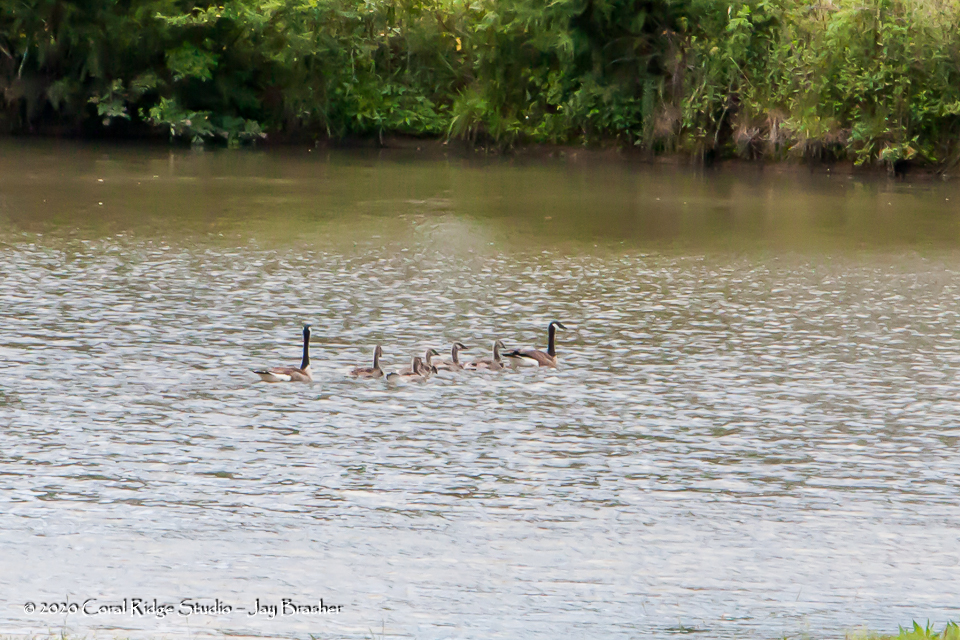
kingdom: Animalia
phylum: Chordata
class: Aves
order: Anseriformes
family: Anatidae
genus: Branta
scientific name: Branta canadensis
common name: Canada goose
